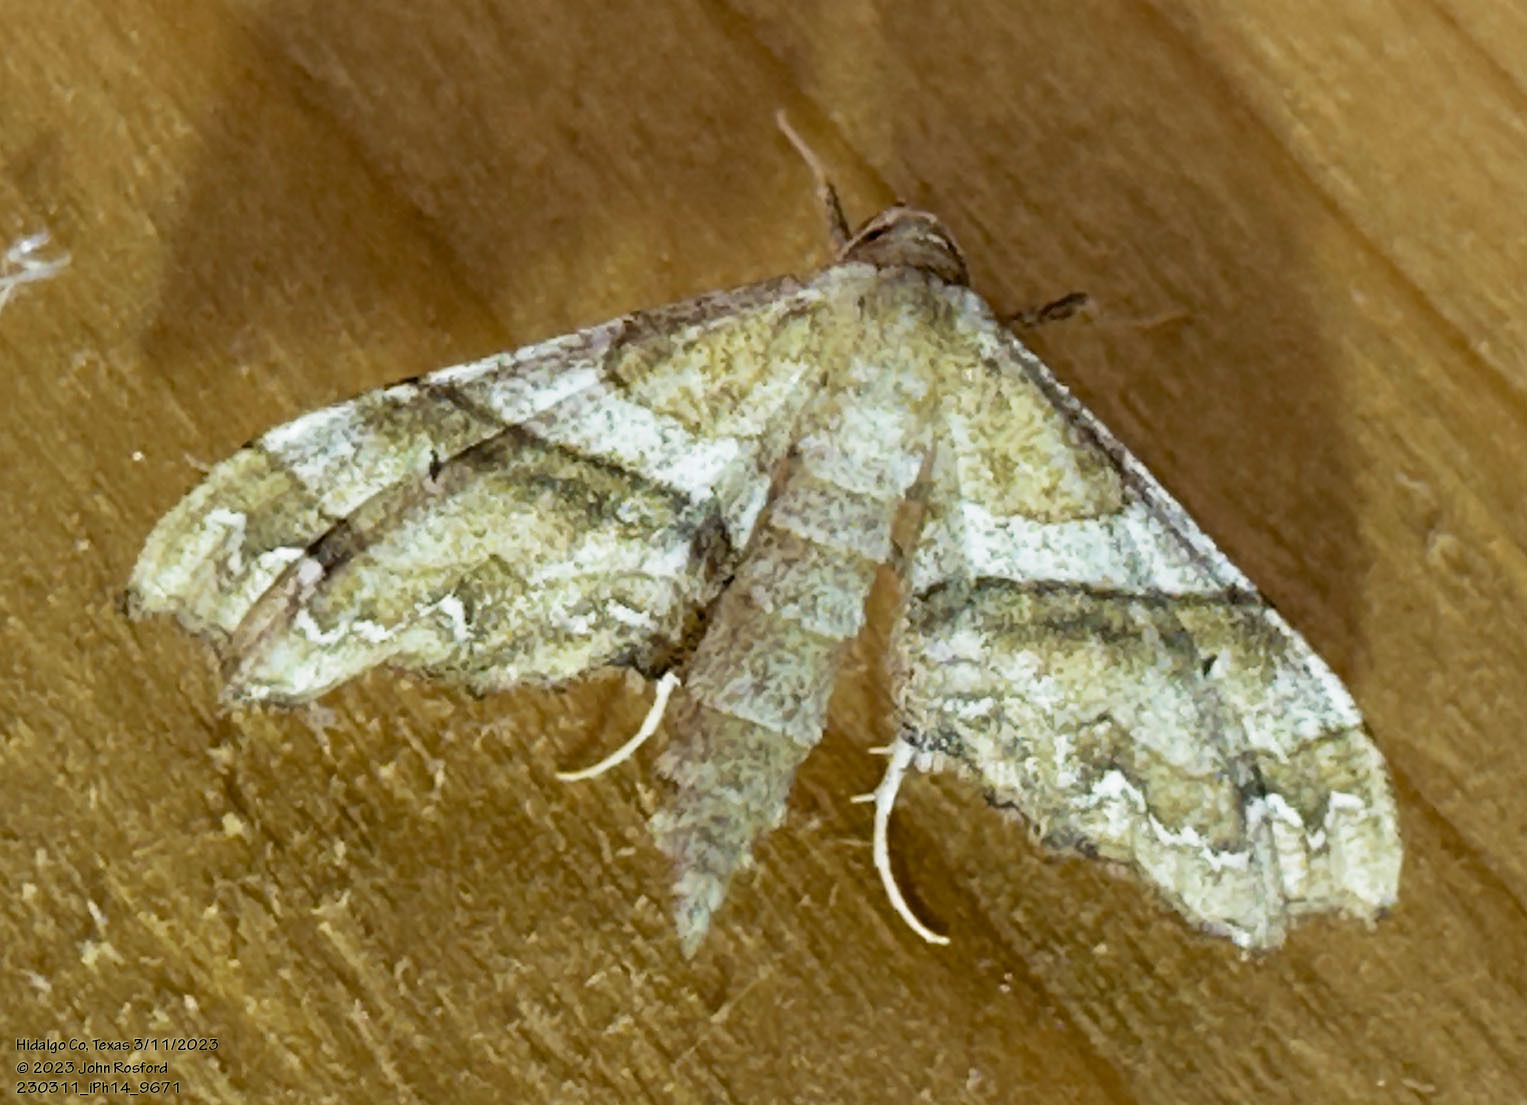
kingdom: Animalia
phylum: Arthropoda
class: Insecta
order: Lepidoptera
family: Geometridae
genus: Odontoptila
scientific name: Odontoptila obrimo
